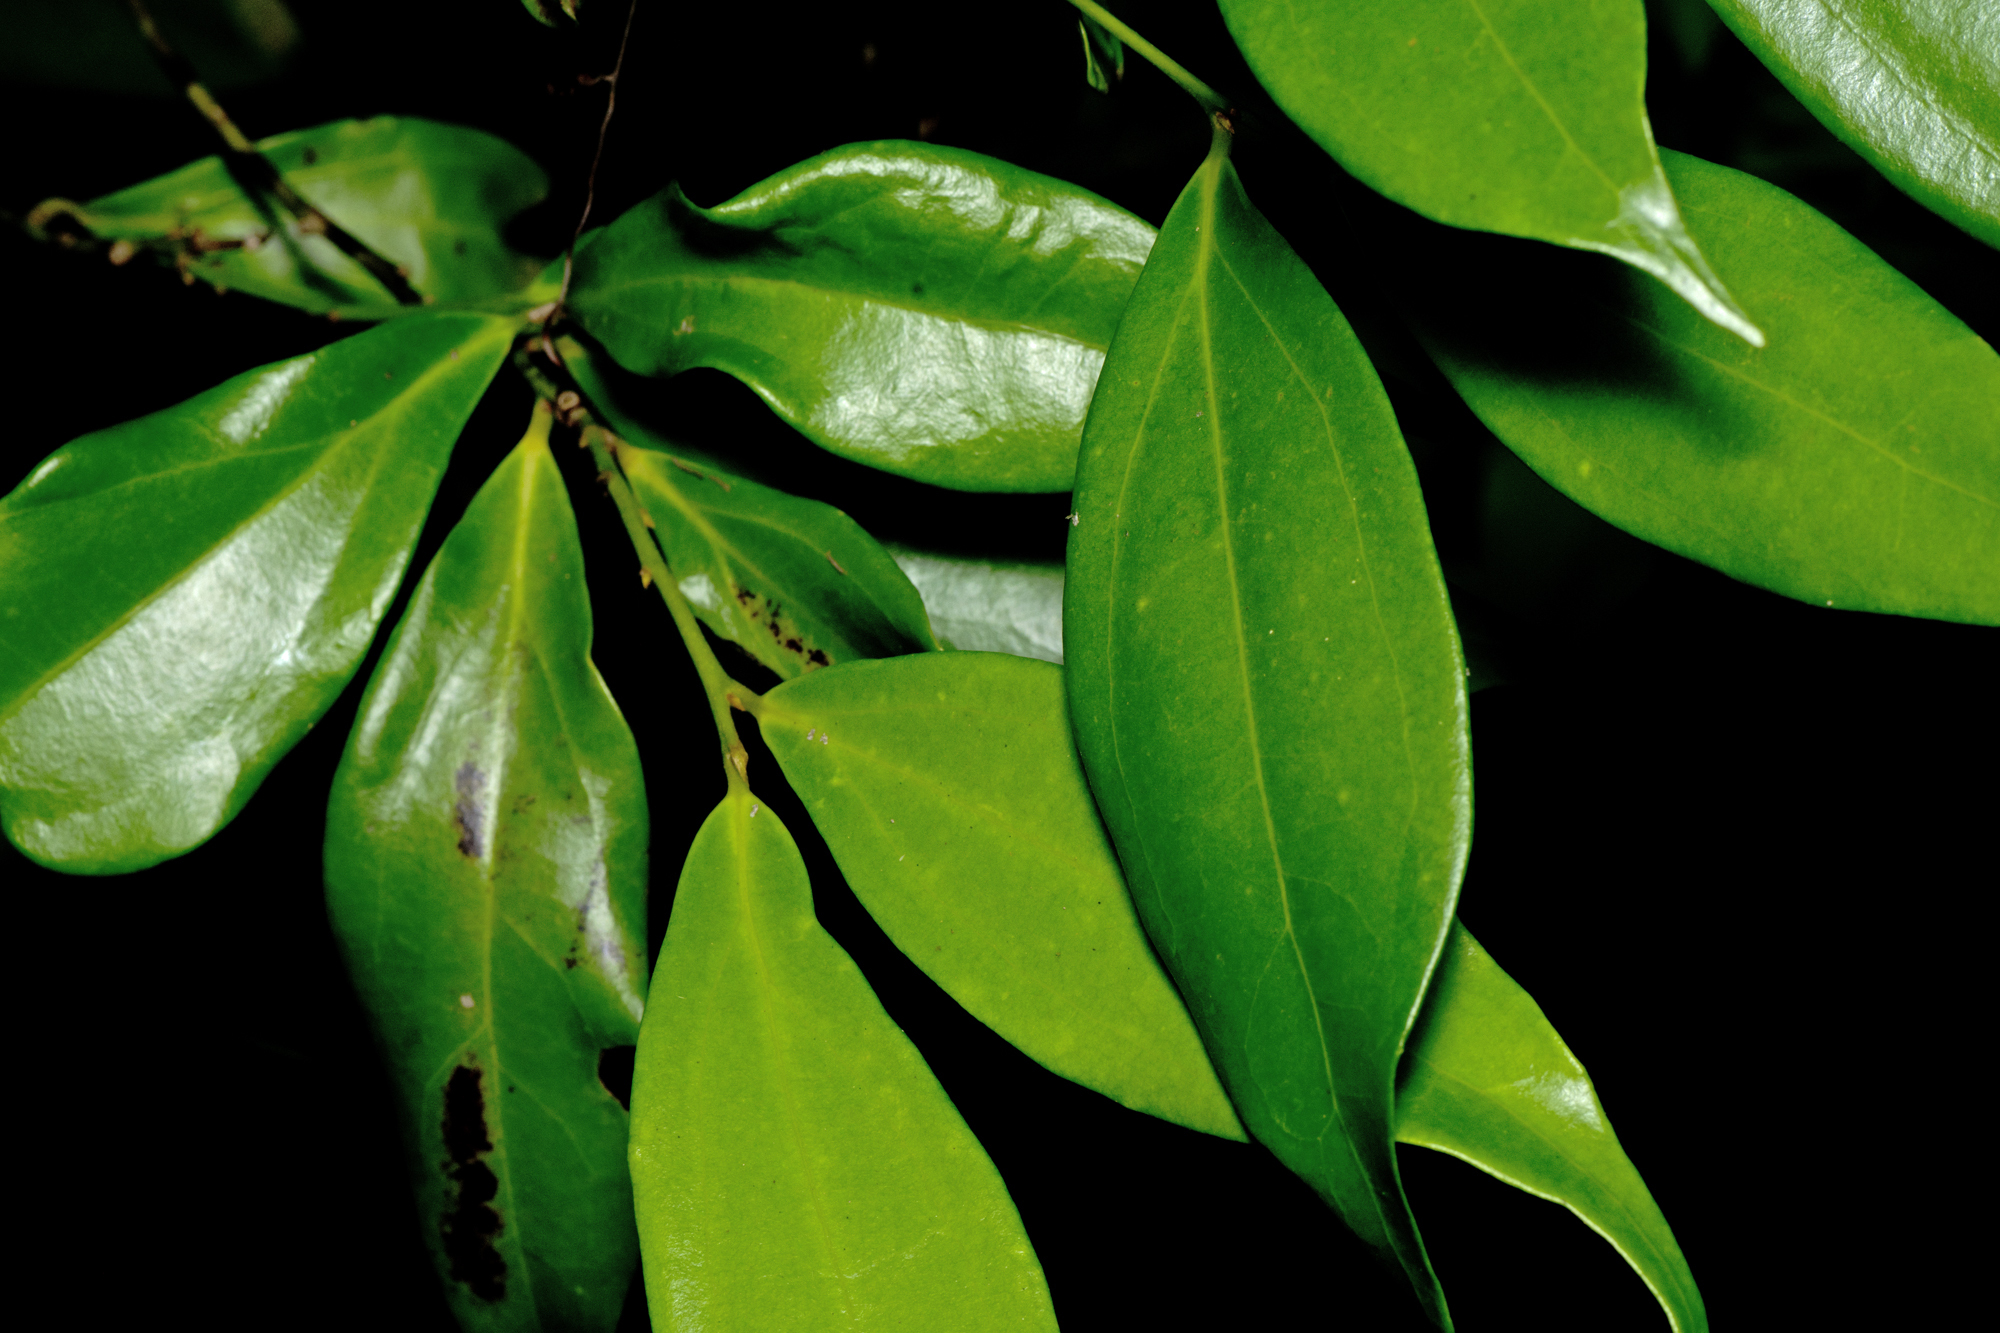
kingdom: Plantae
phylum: Tracheophyta
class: Magnoliopsida
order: Laurales
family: Lauraceae
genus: Cryptocarya
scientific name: Cryptocarya laevigata
